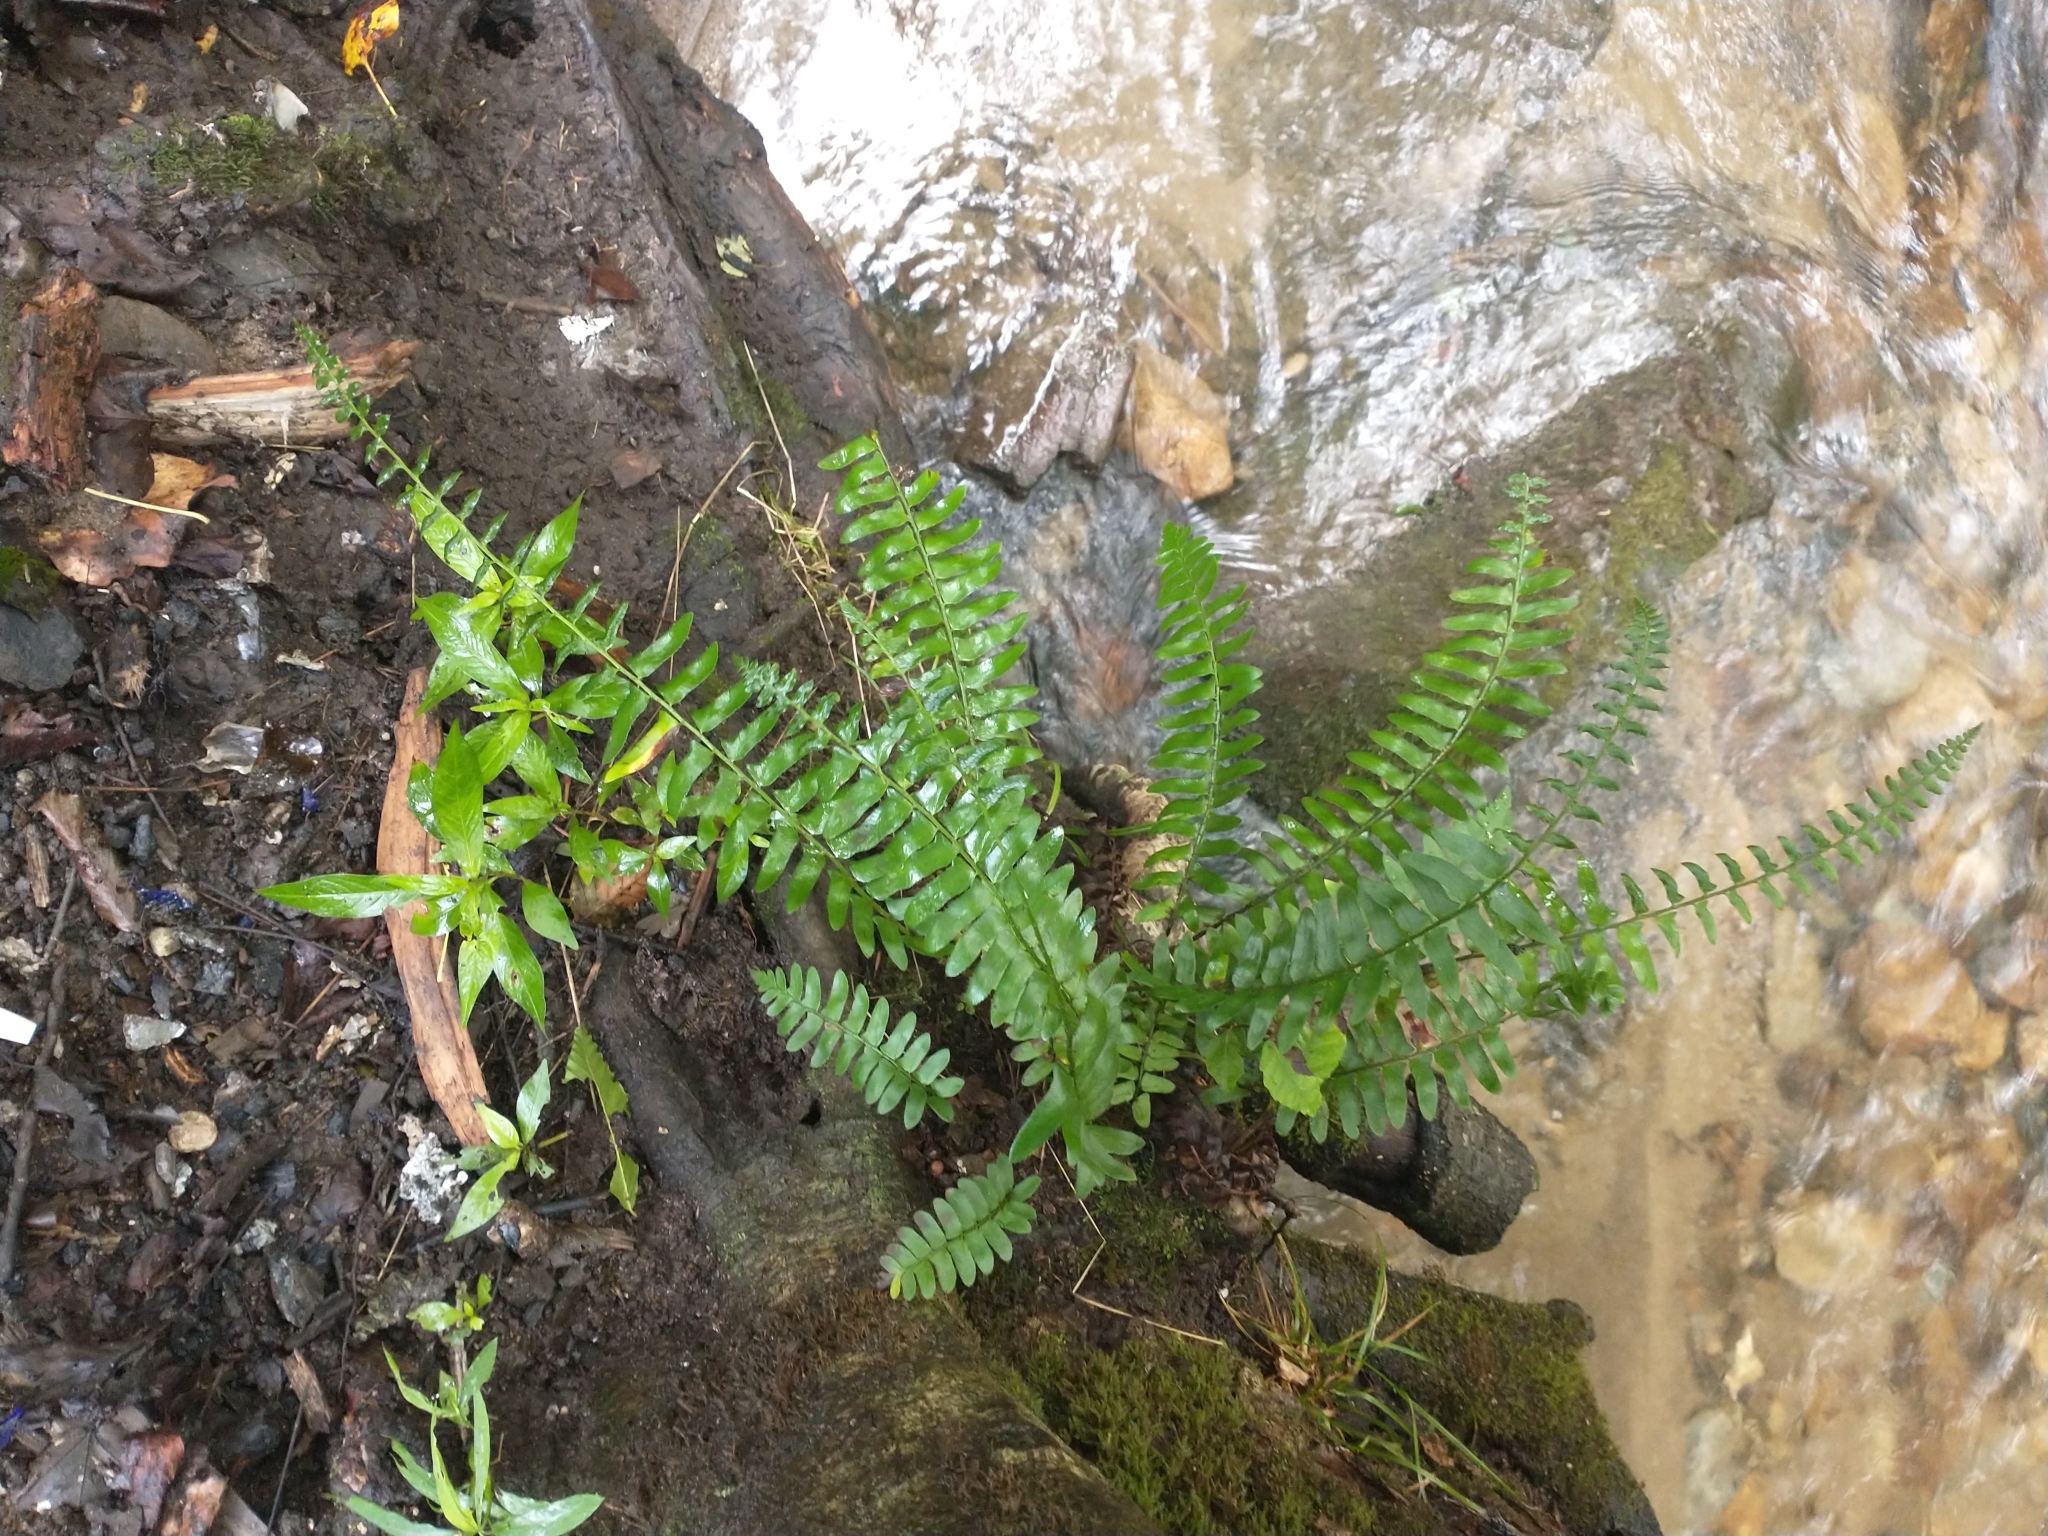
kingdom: Plantae
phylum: Tracheophyta
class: Polypodiopsida
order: Polypodiales
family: Dryopteridaceae
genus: Polystichum
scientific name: Polystichum acrostichoides
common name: Christmas fern
